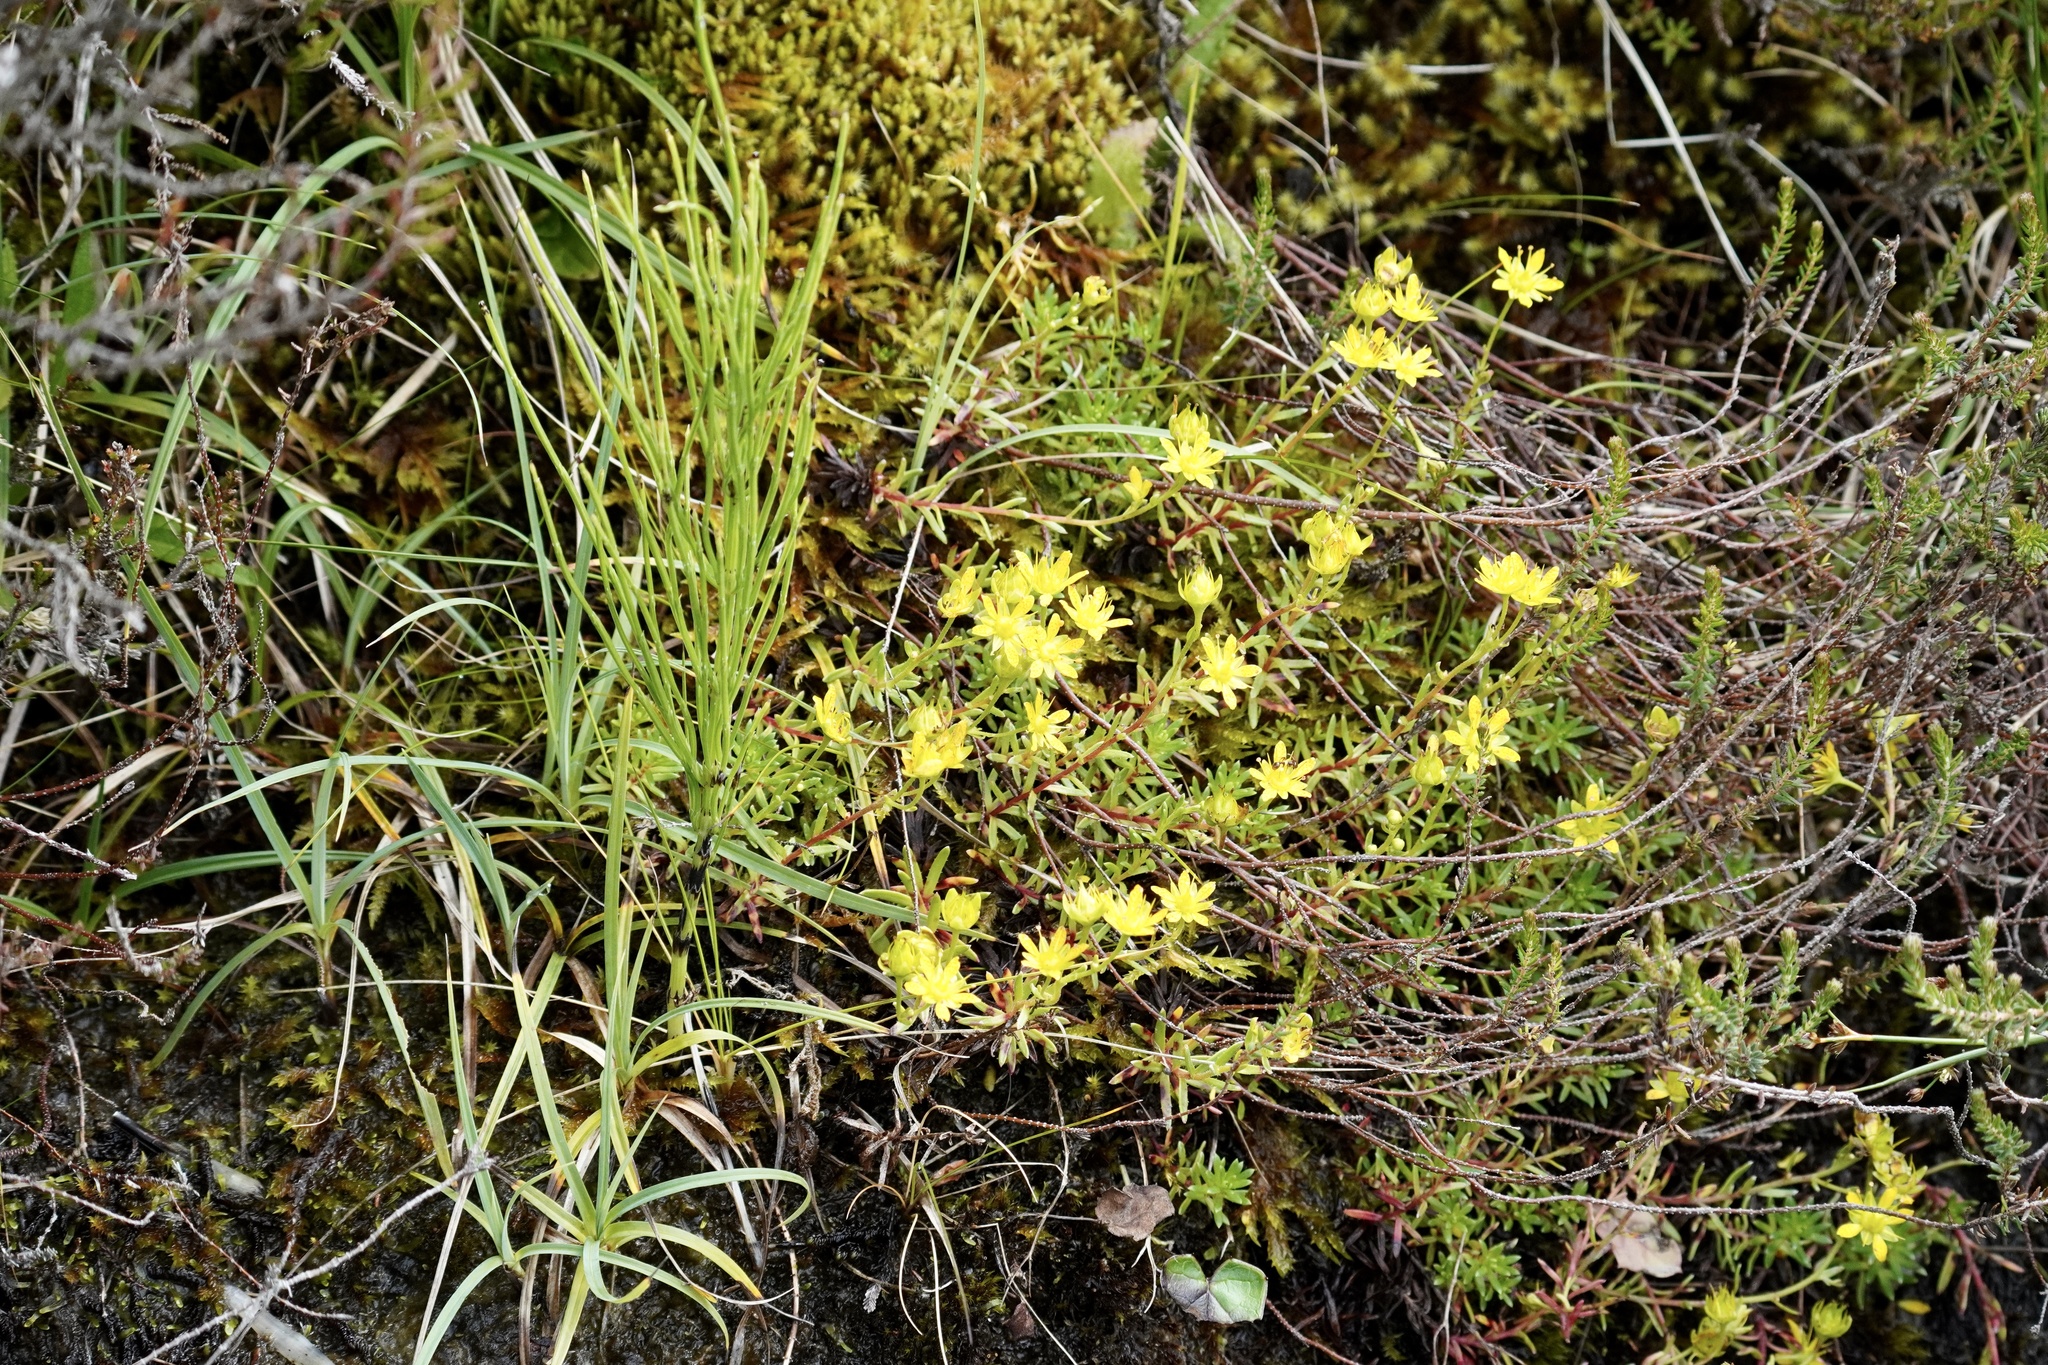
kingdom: Plantae
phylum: Tracheophyta
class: Magnoliopsida
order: Saxifragales
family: Saxifragaceae
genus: Saxifraga
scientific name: Saxifraga aizoides
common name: Yellow mountain saxifrage
